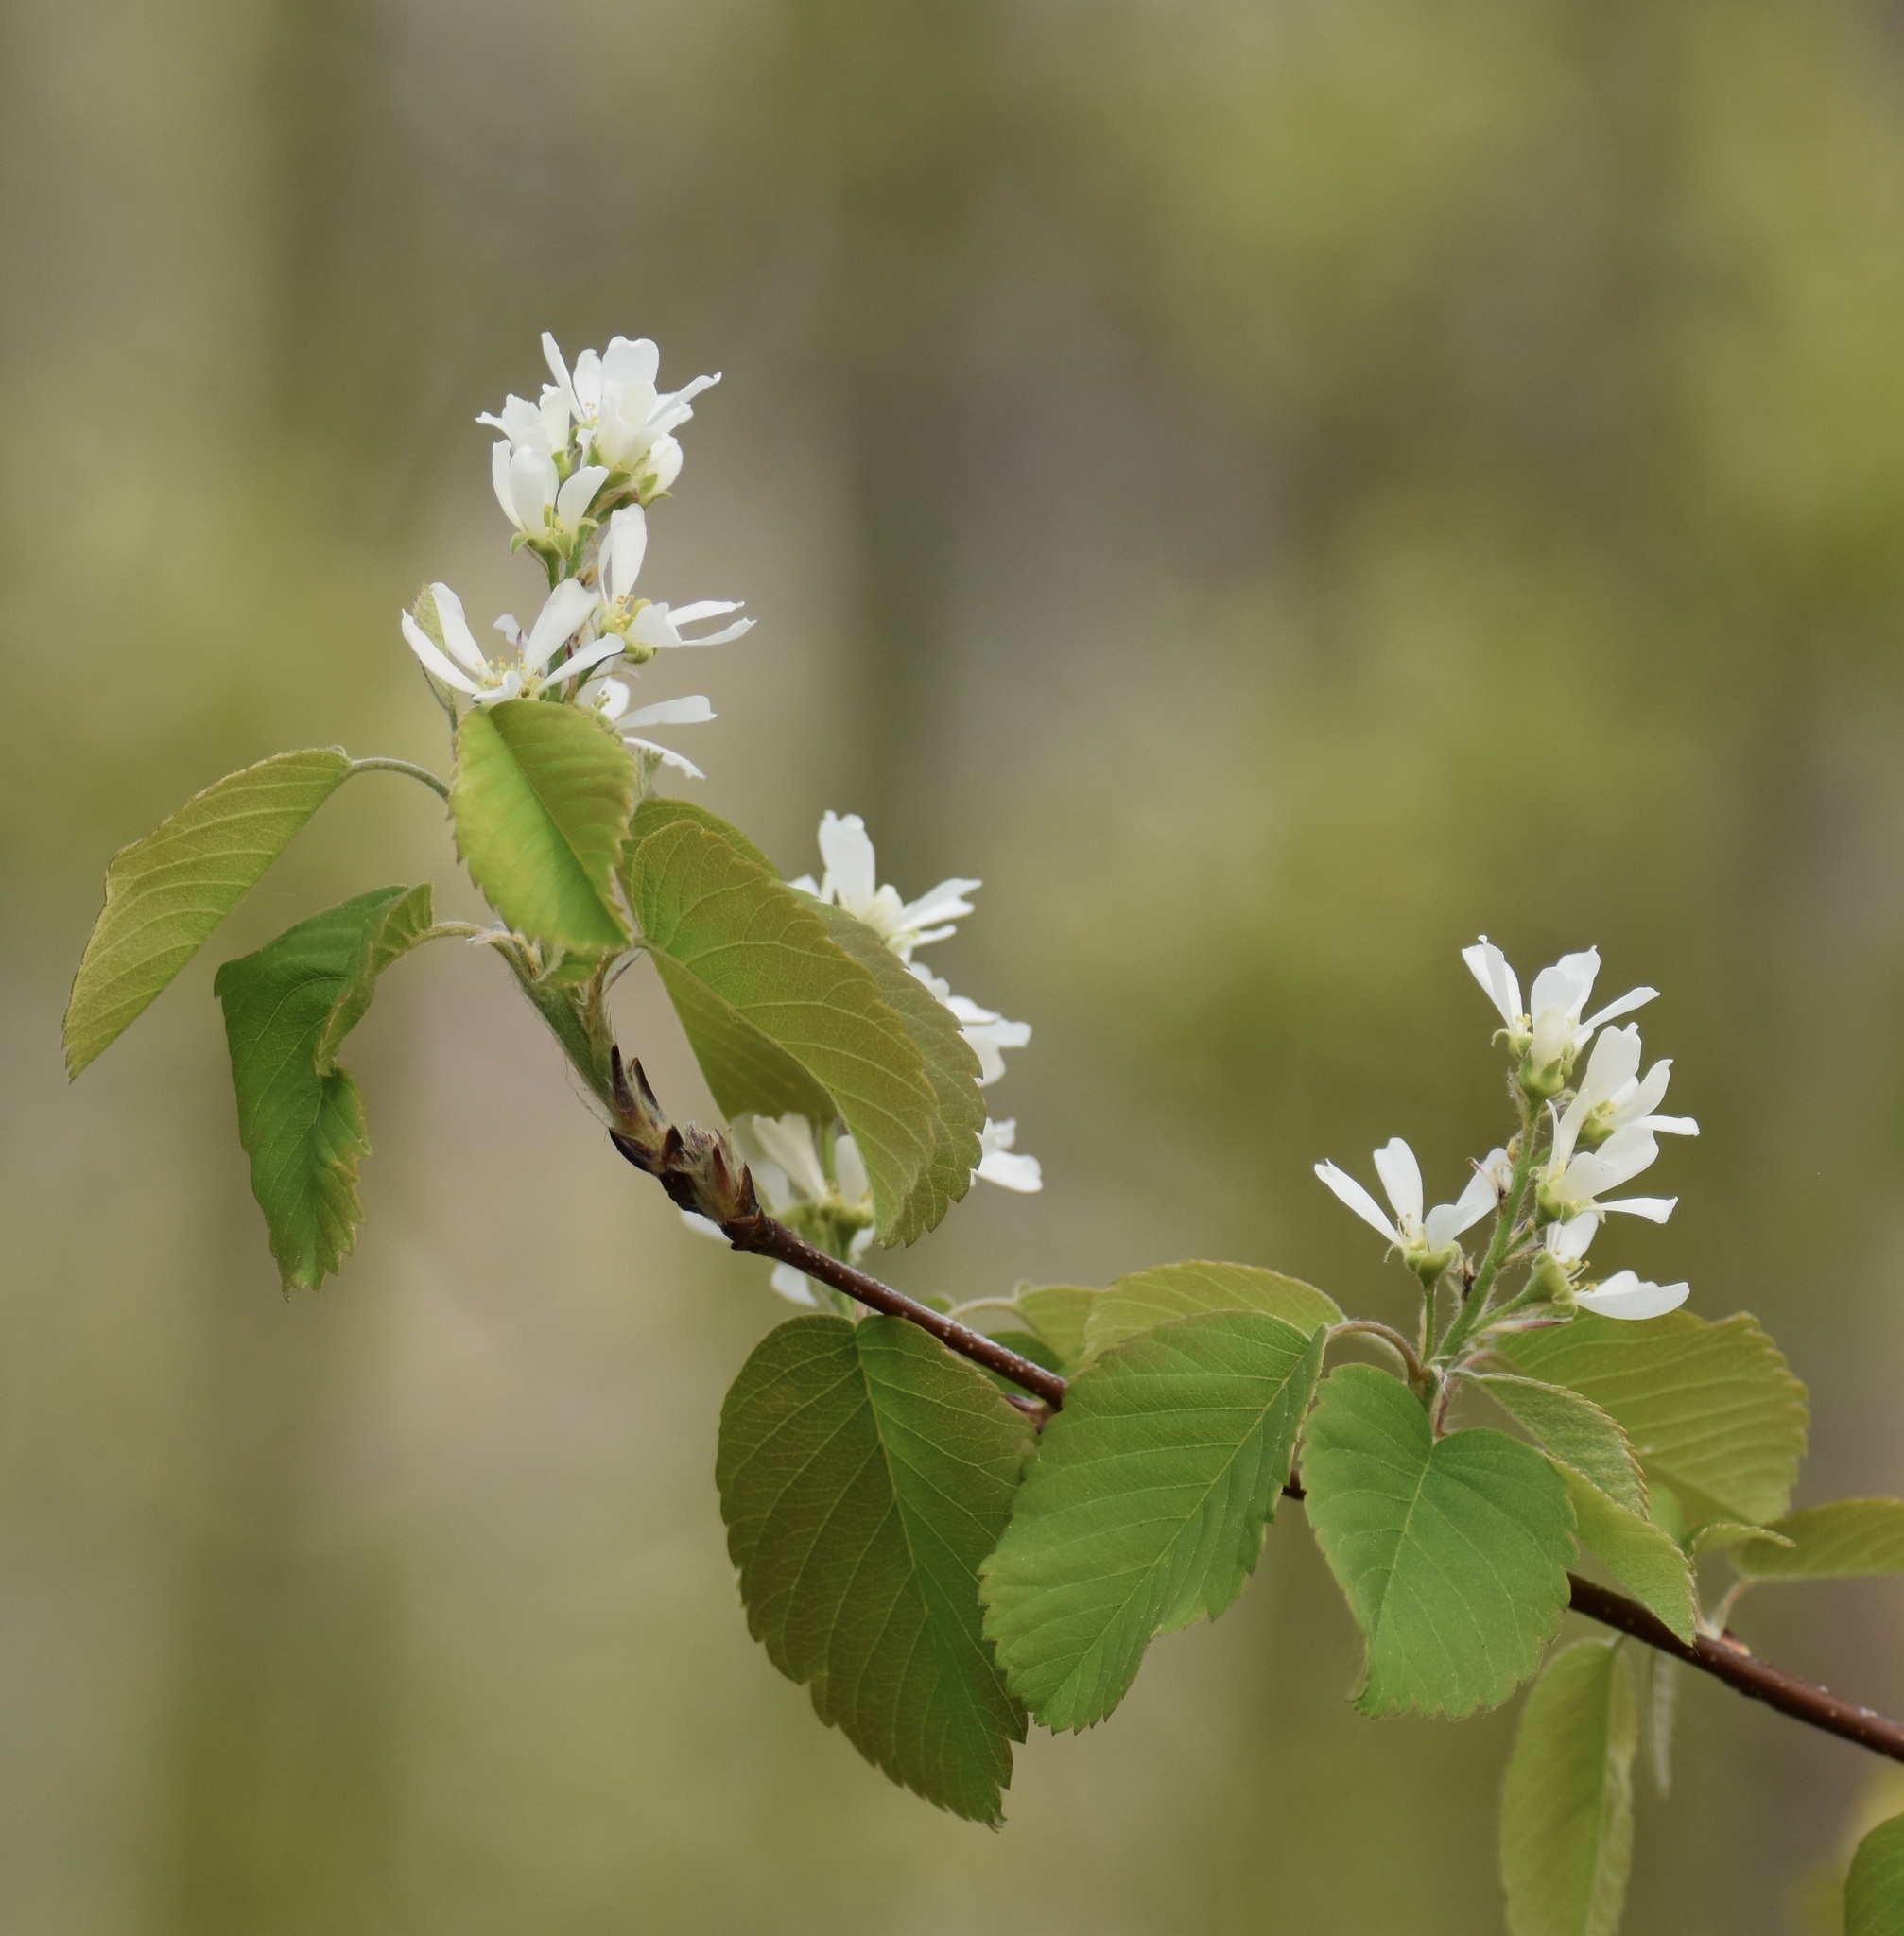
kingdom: Plantae
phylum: Tracheophyta
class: Magnoliopsida
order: Rosales
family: Rosaceae
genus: Amelanchier
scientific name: Amelanchier alnifolia
